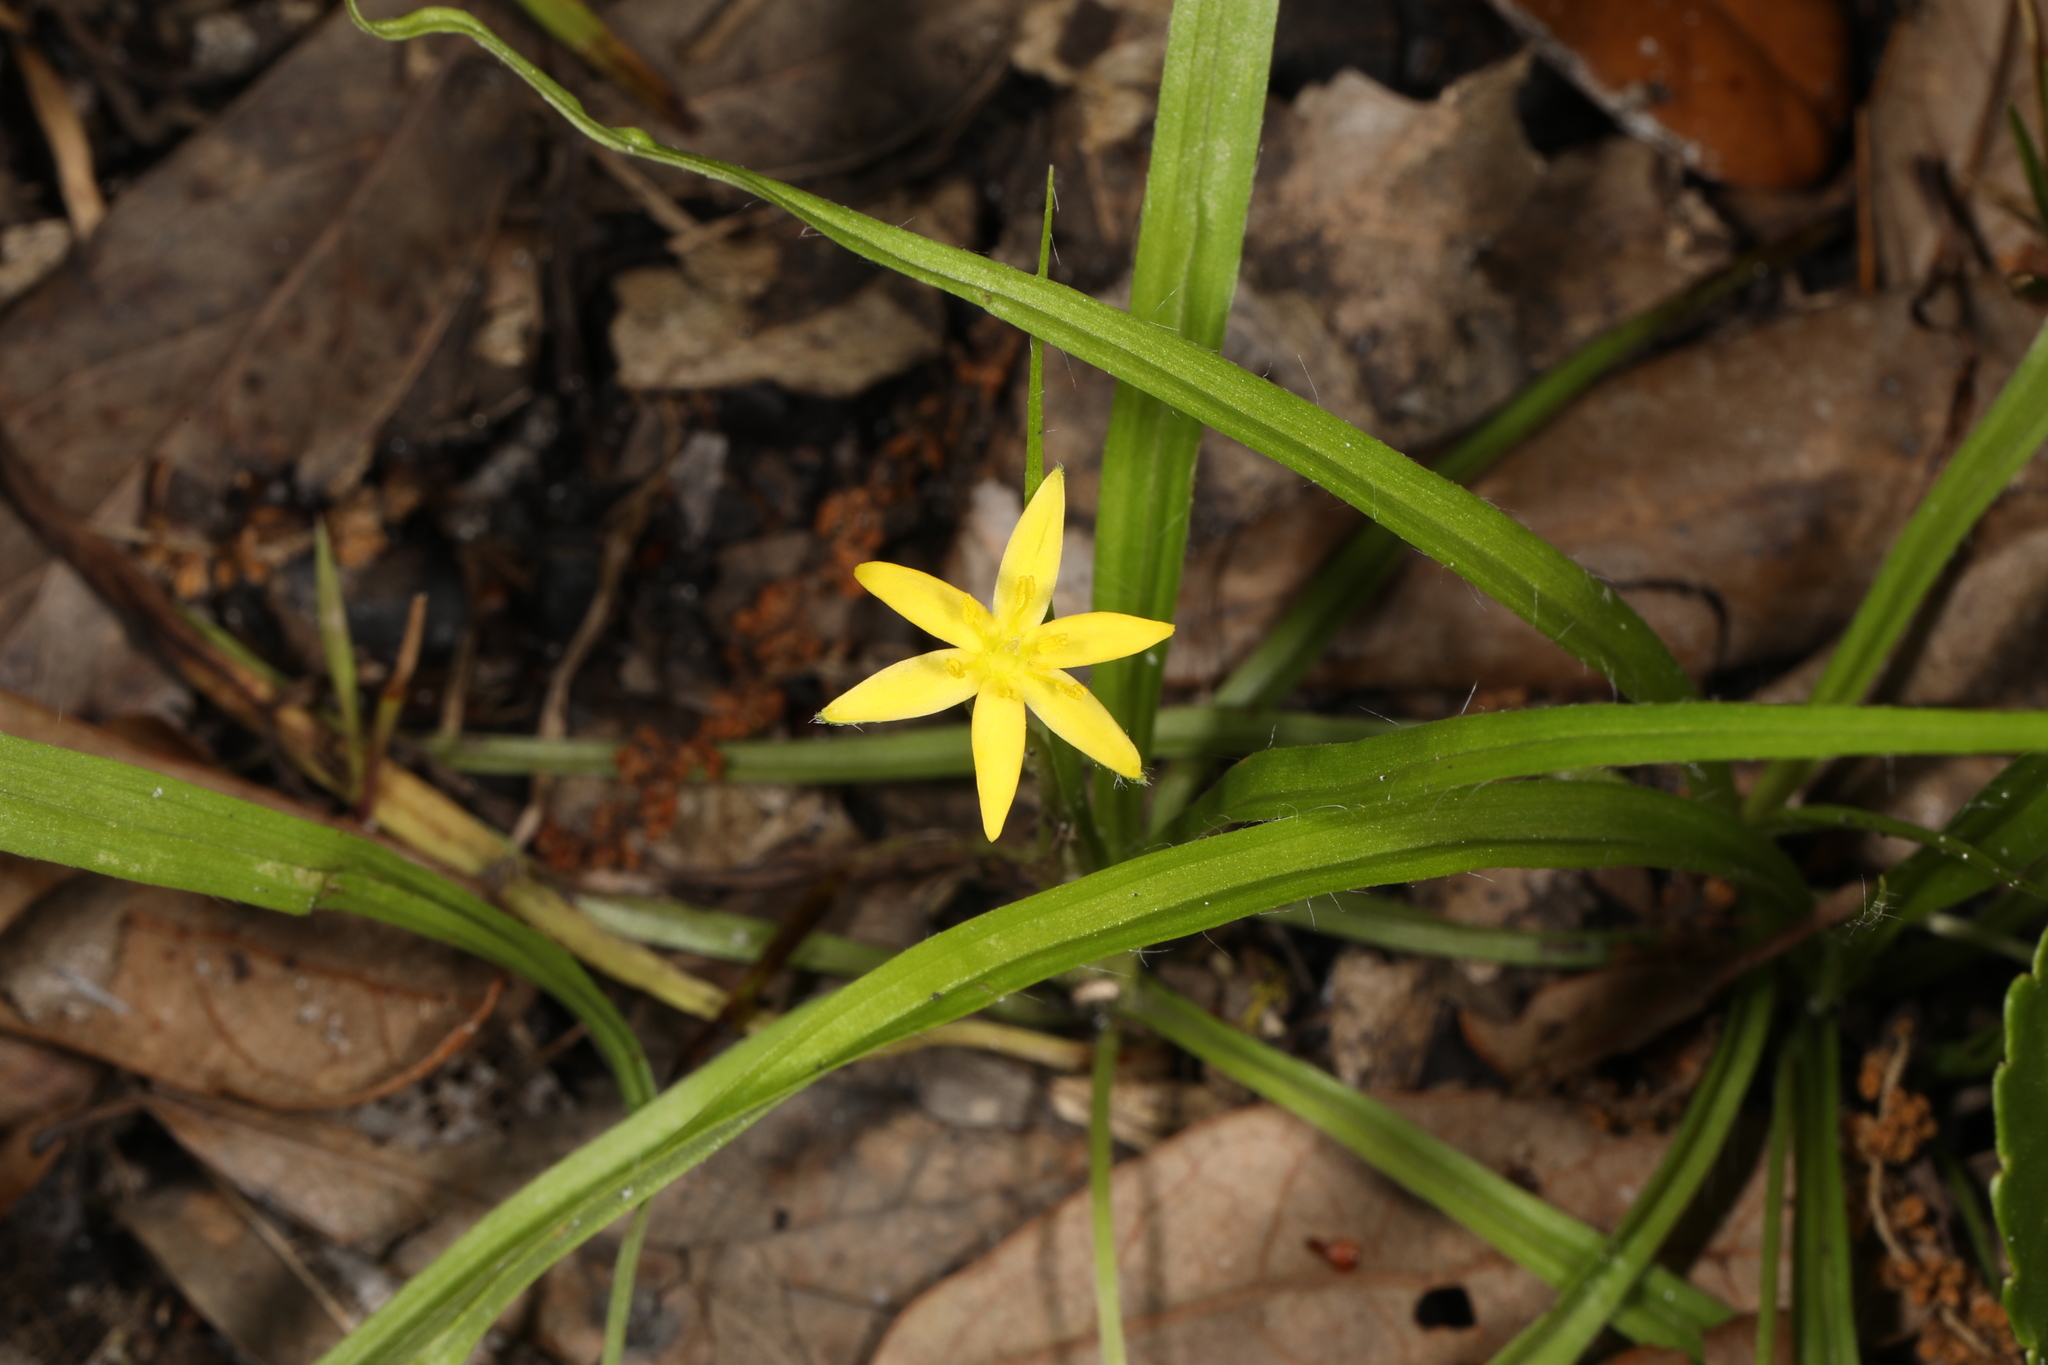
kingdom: Plantae
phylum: Tracheophyta
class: Liliopsida
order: Asparagales
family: Hypoxidaceae
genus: Hypoxis
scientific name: Hypoxis curtissii
